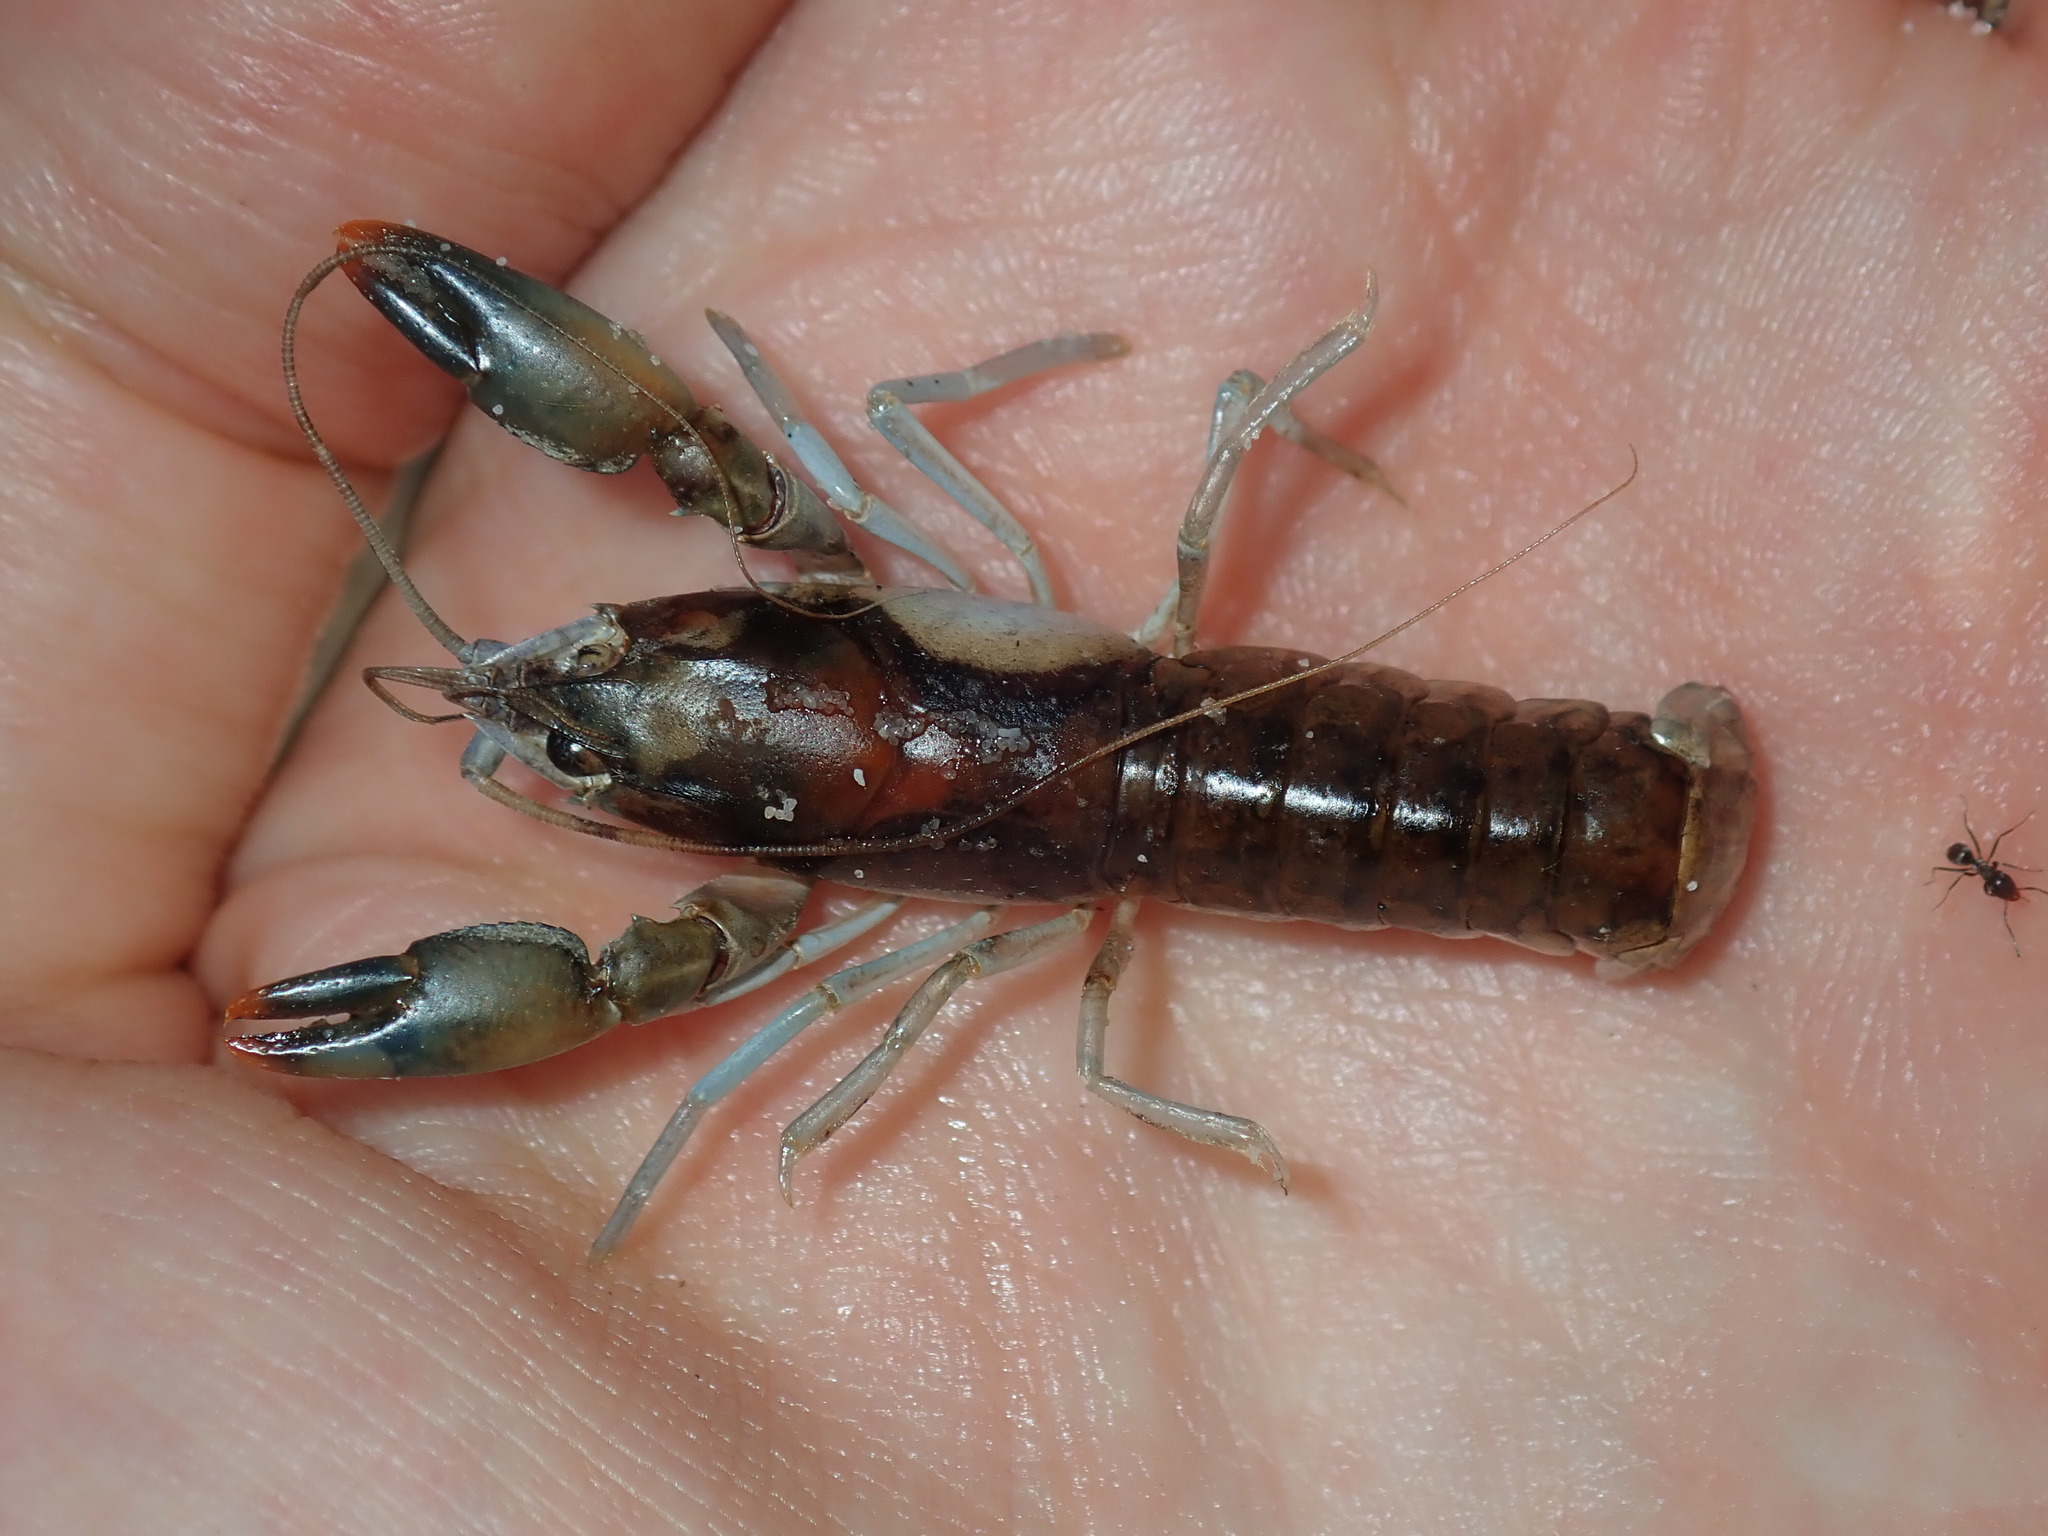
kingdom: Animalia
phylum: Arthropoda
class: Malacostraca
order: Decapoda
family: Parastacidae
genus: Cherax
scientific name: Cherax cuspidatus
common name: Cusped crayfish
